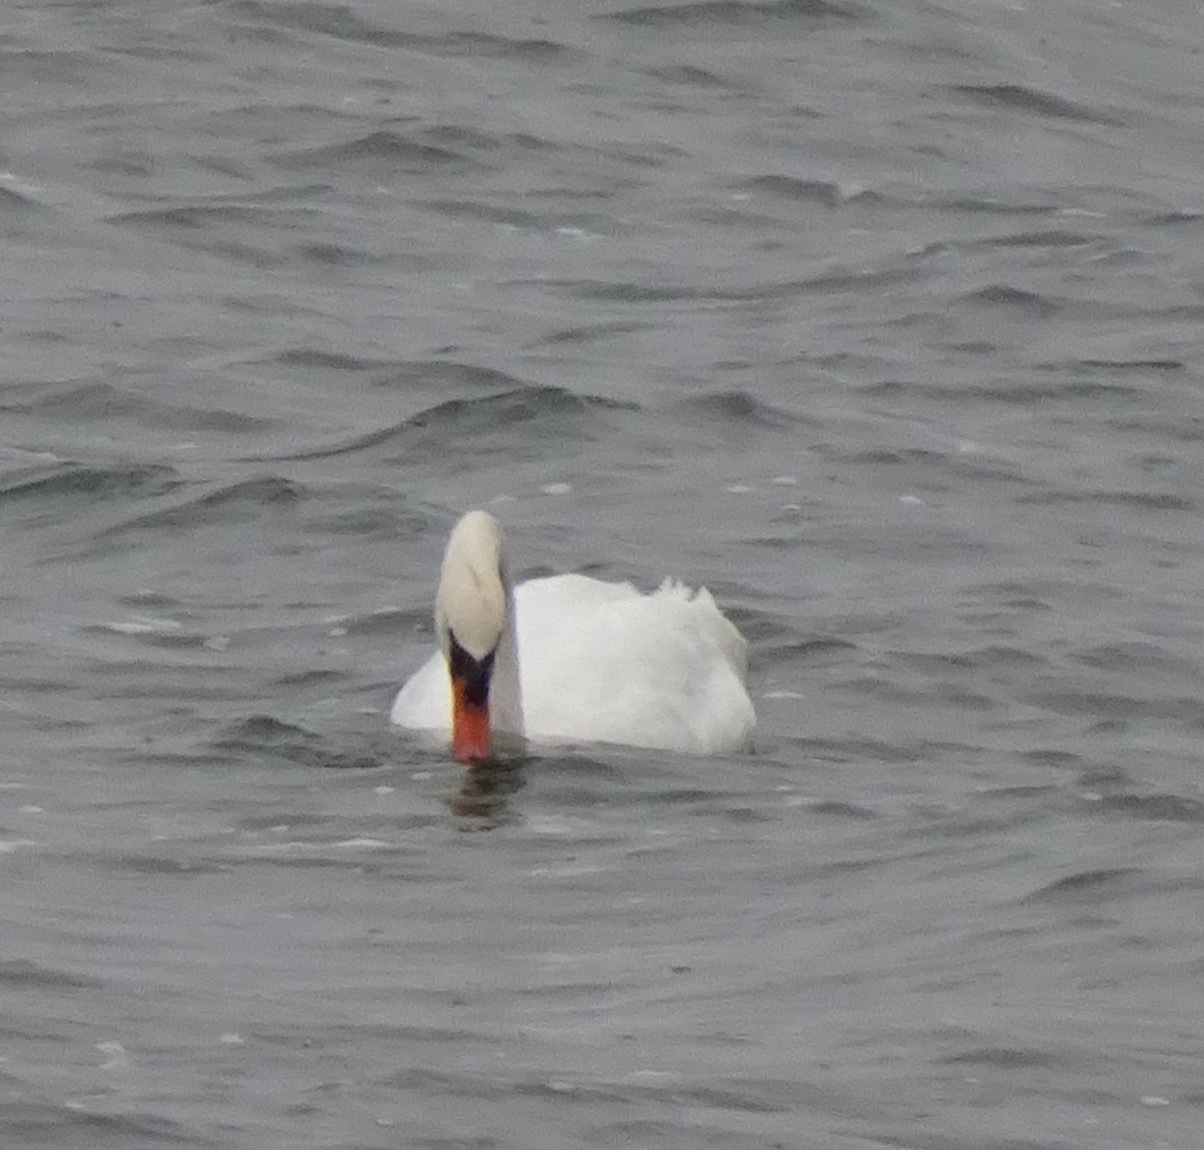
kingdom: Animalia
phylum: Chordata
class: Aves
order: Anseriformes
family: Anatidae
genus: Cygnus
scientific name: Cygnus olor
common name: Mute swan
